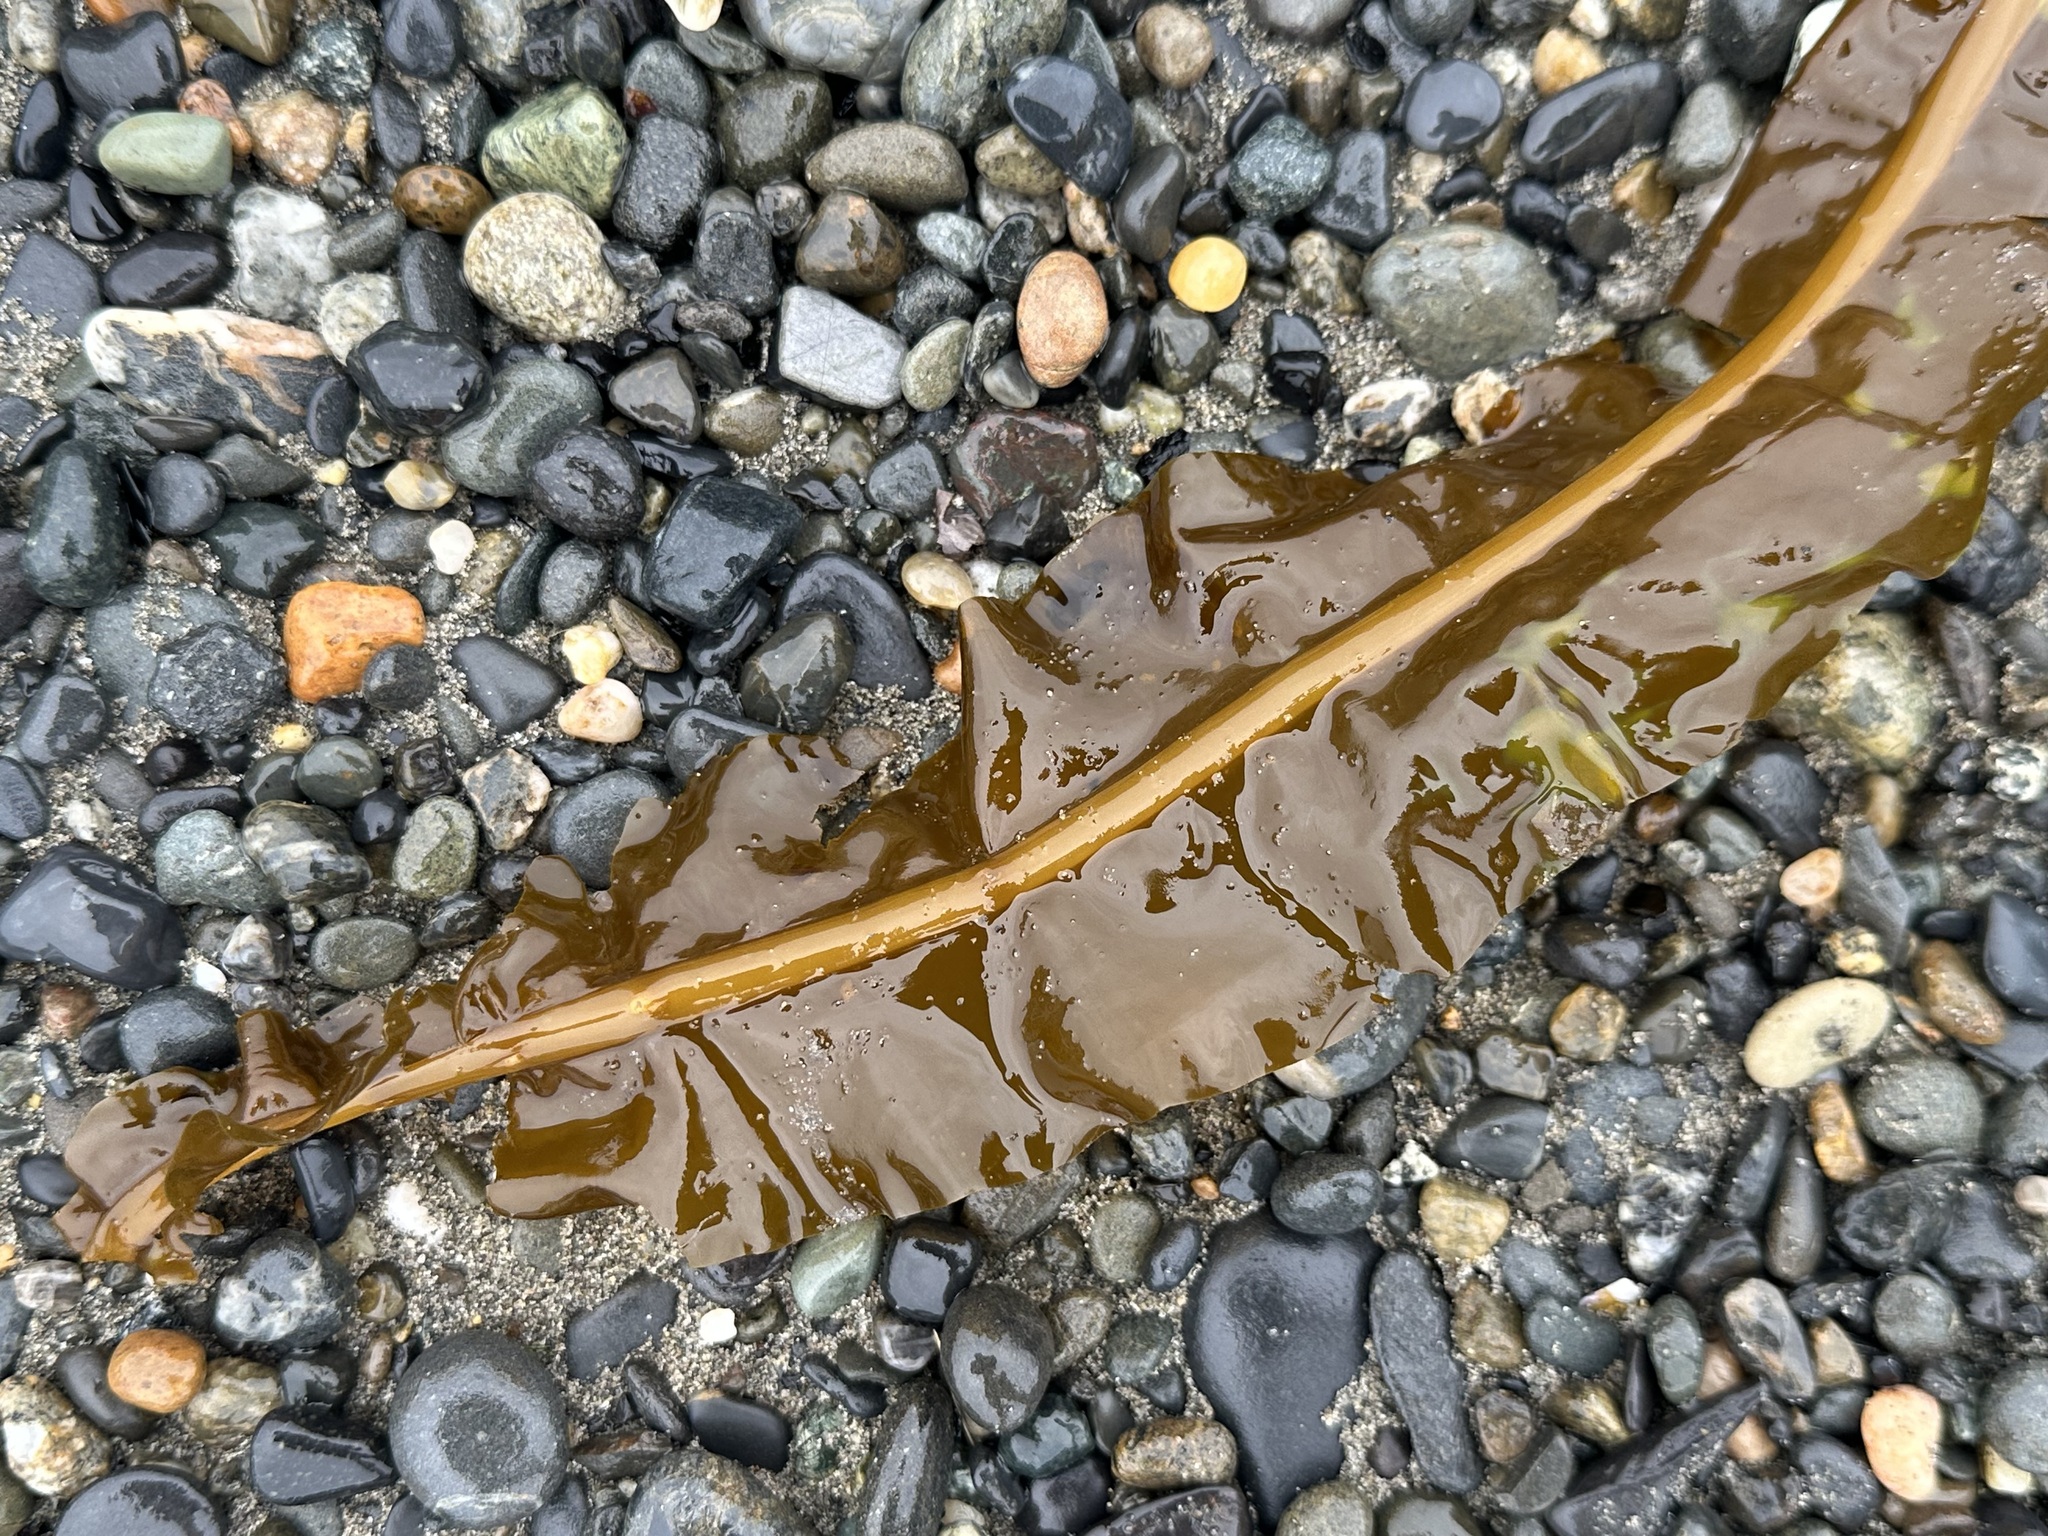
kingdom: Chromista
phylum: Ochrophyta
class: Phaeophyceae
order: Laminariales
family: Alariaceae
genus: Alaria
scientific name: Alaria marginata
